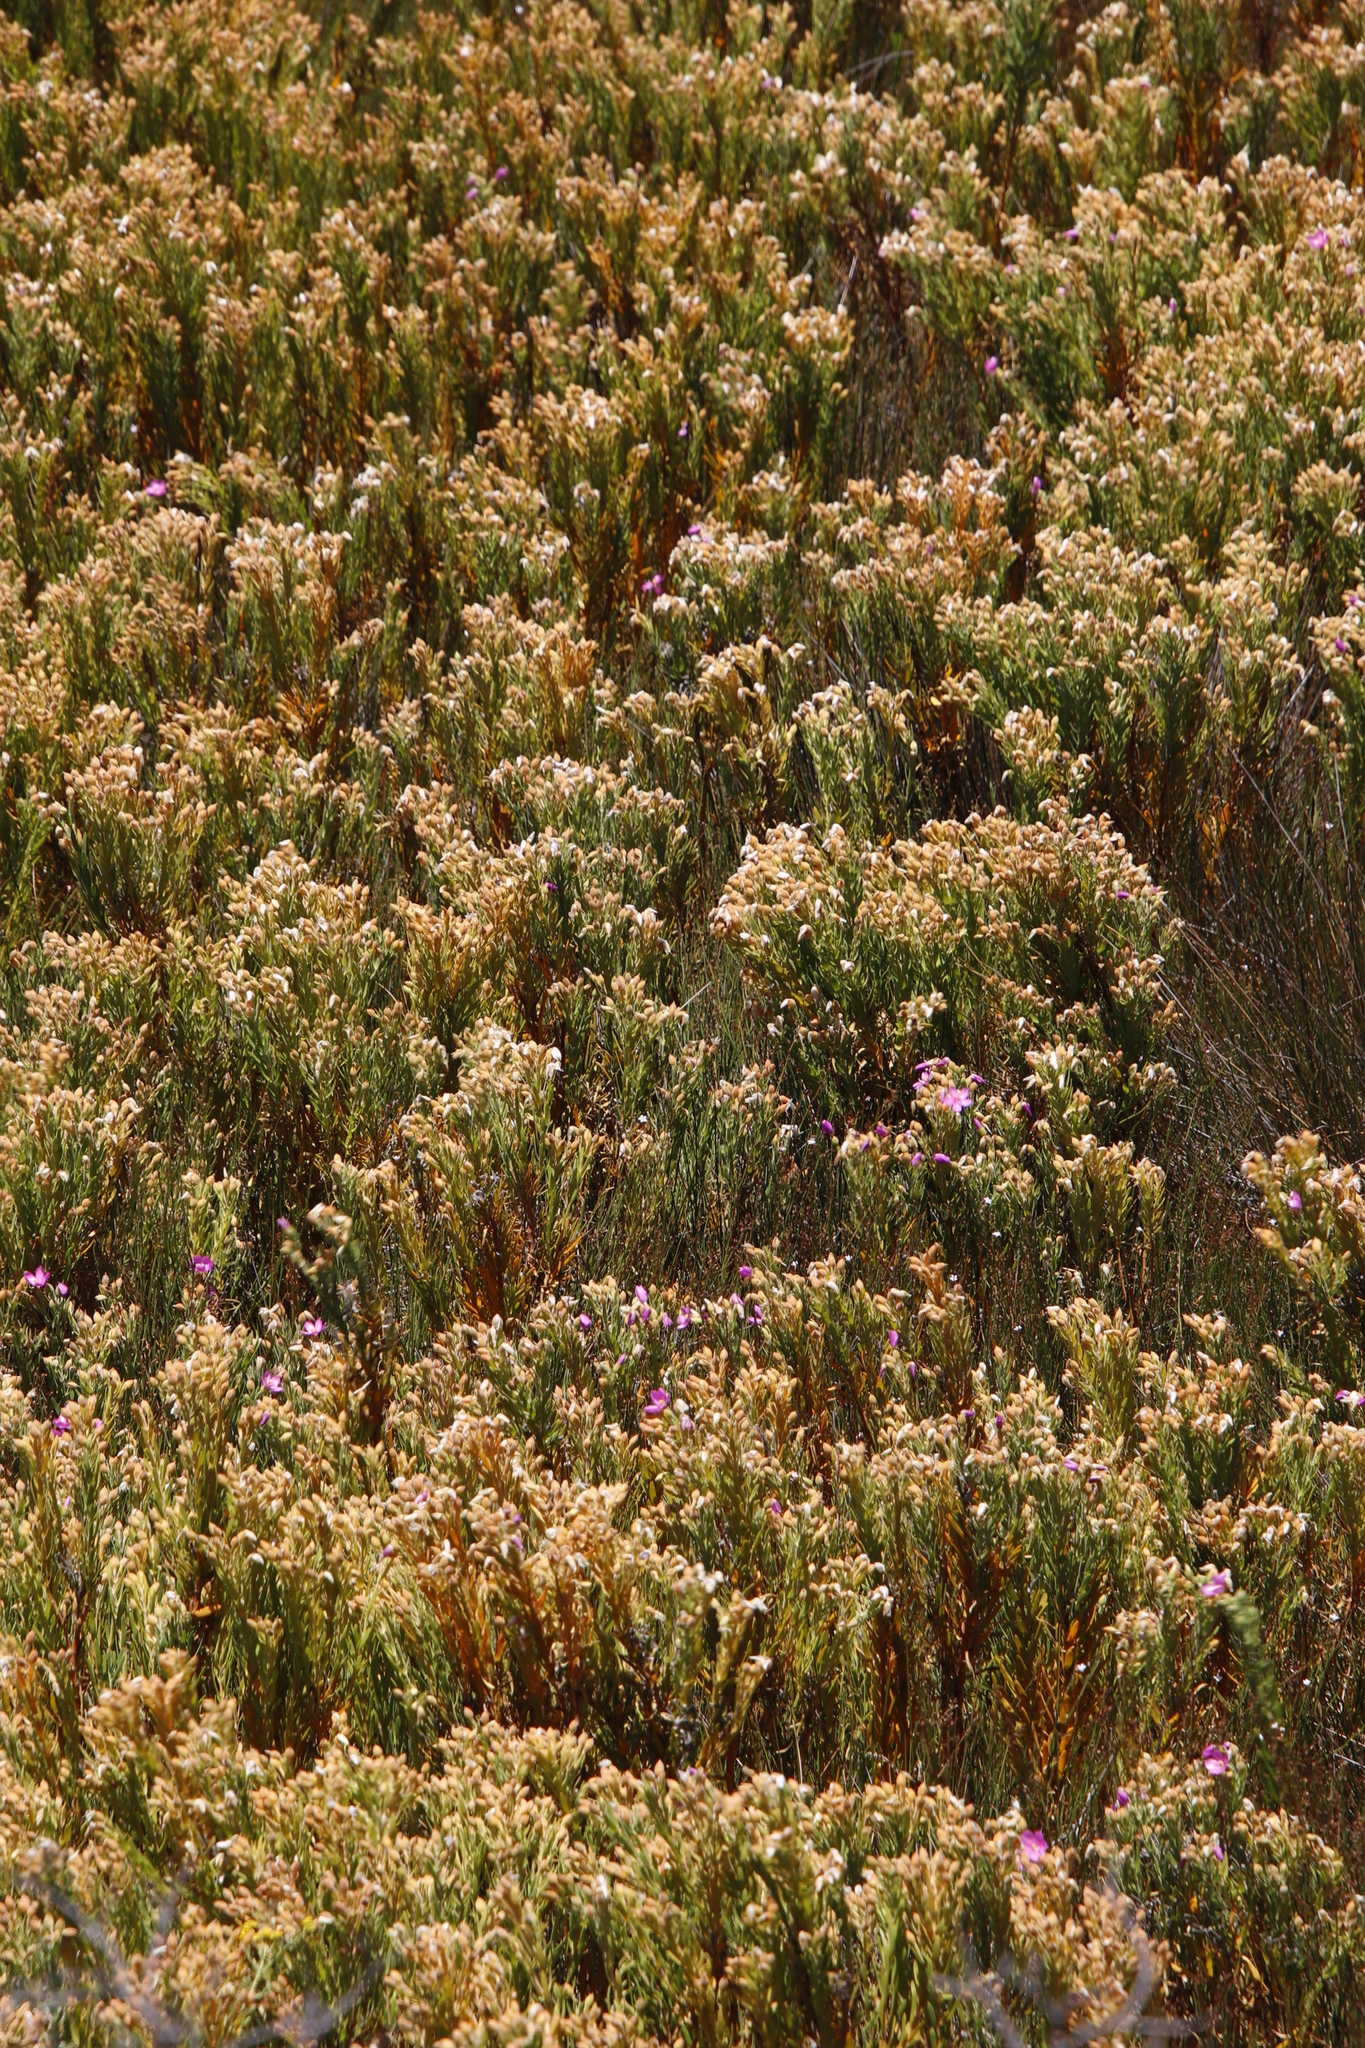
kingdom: Plantae
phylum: Tracheophyta
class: Magnoliopsida
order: Gentianales
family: Gentianaceae
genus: Orphium
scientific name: Orphium frutescens
